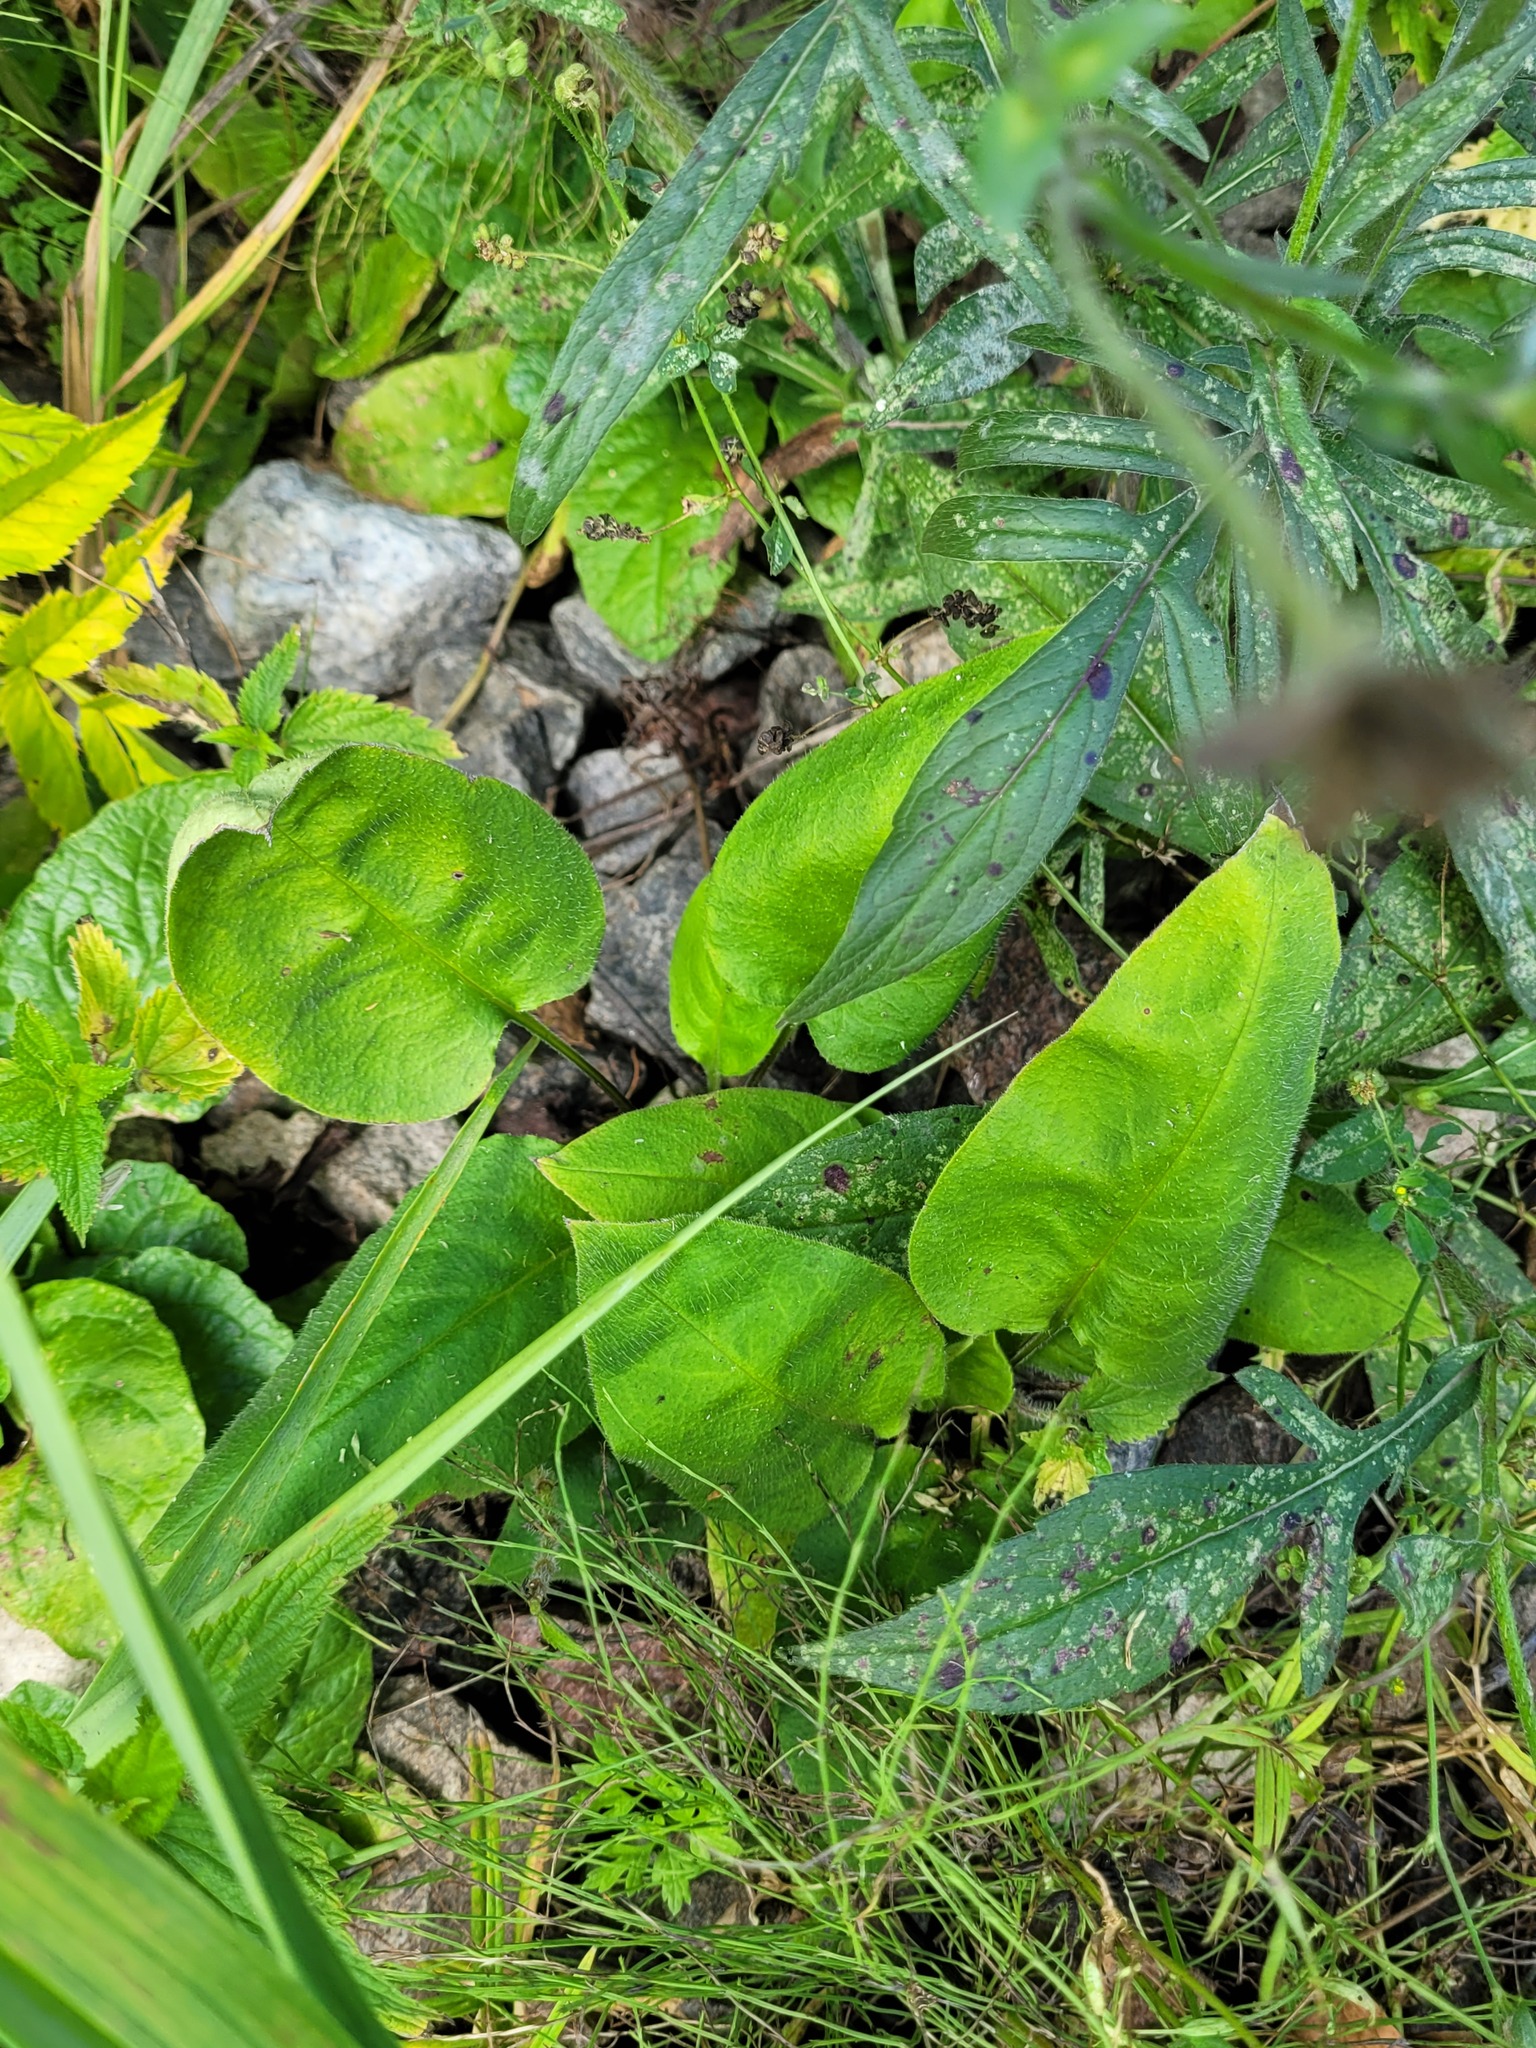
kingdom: Plantae
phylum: Tracheophyta
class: Magnoliopsida
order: Boraginales
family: Boraginaceae
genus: Pulmonaria
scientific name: Pulmonaria obscura
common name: Suffolk lungwort
